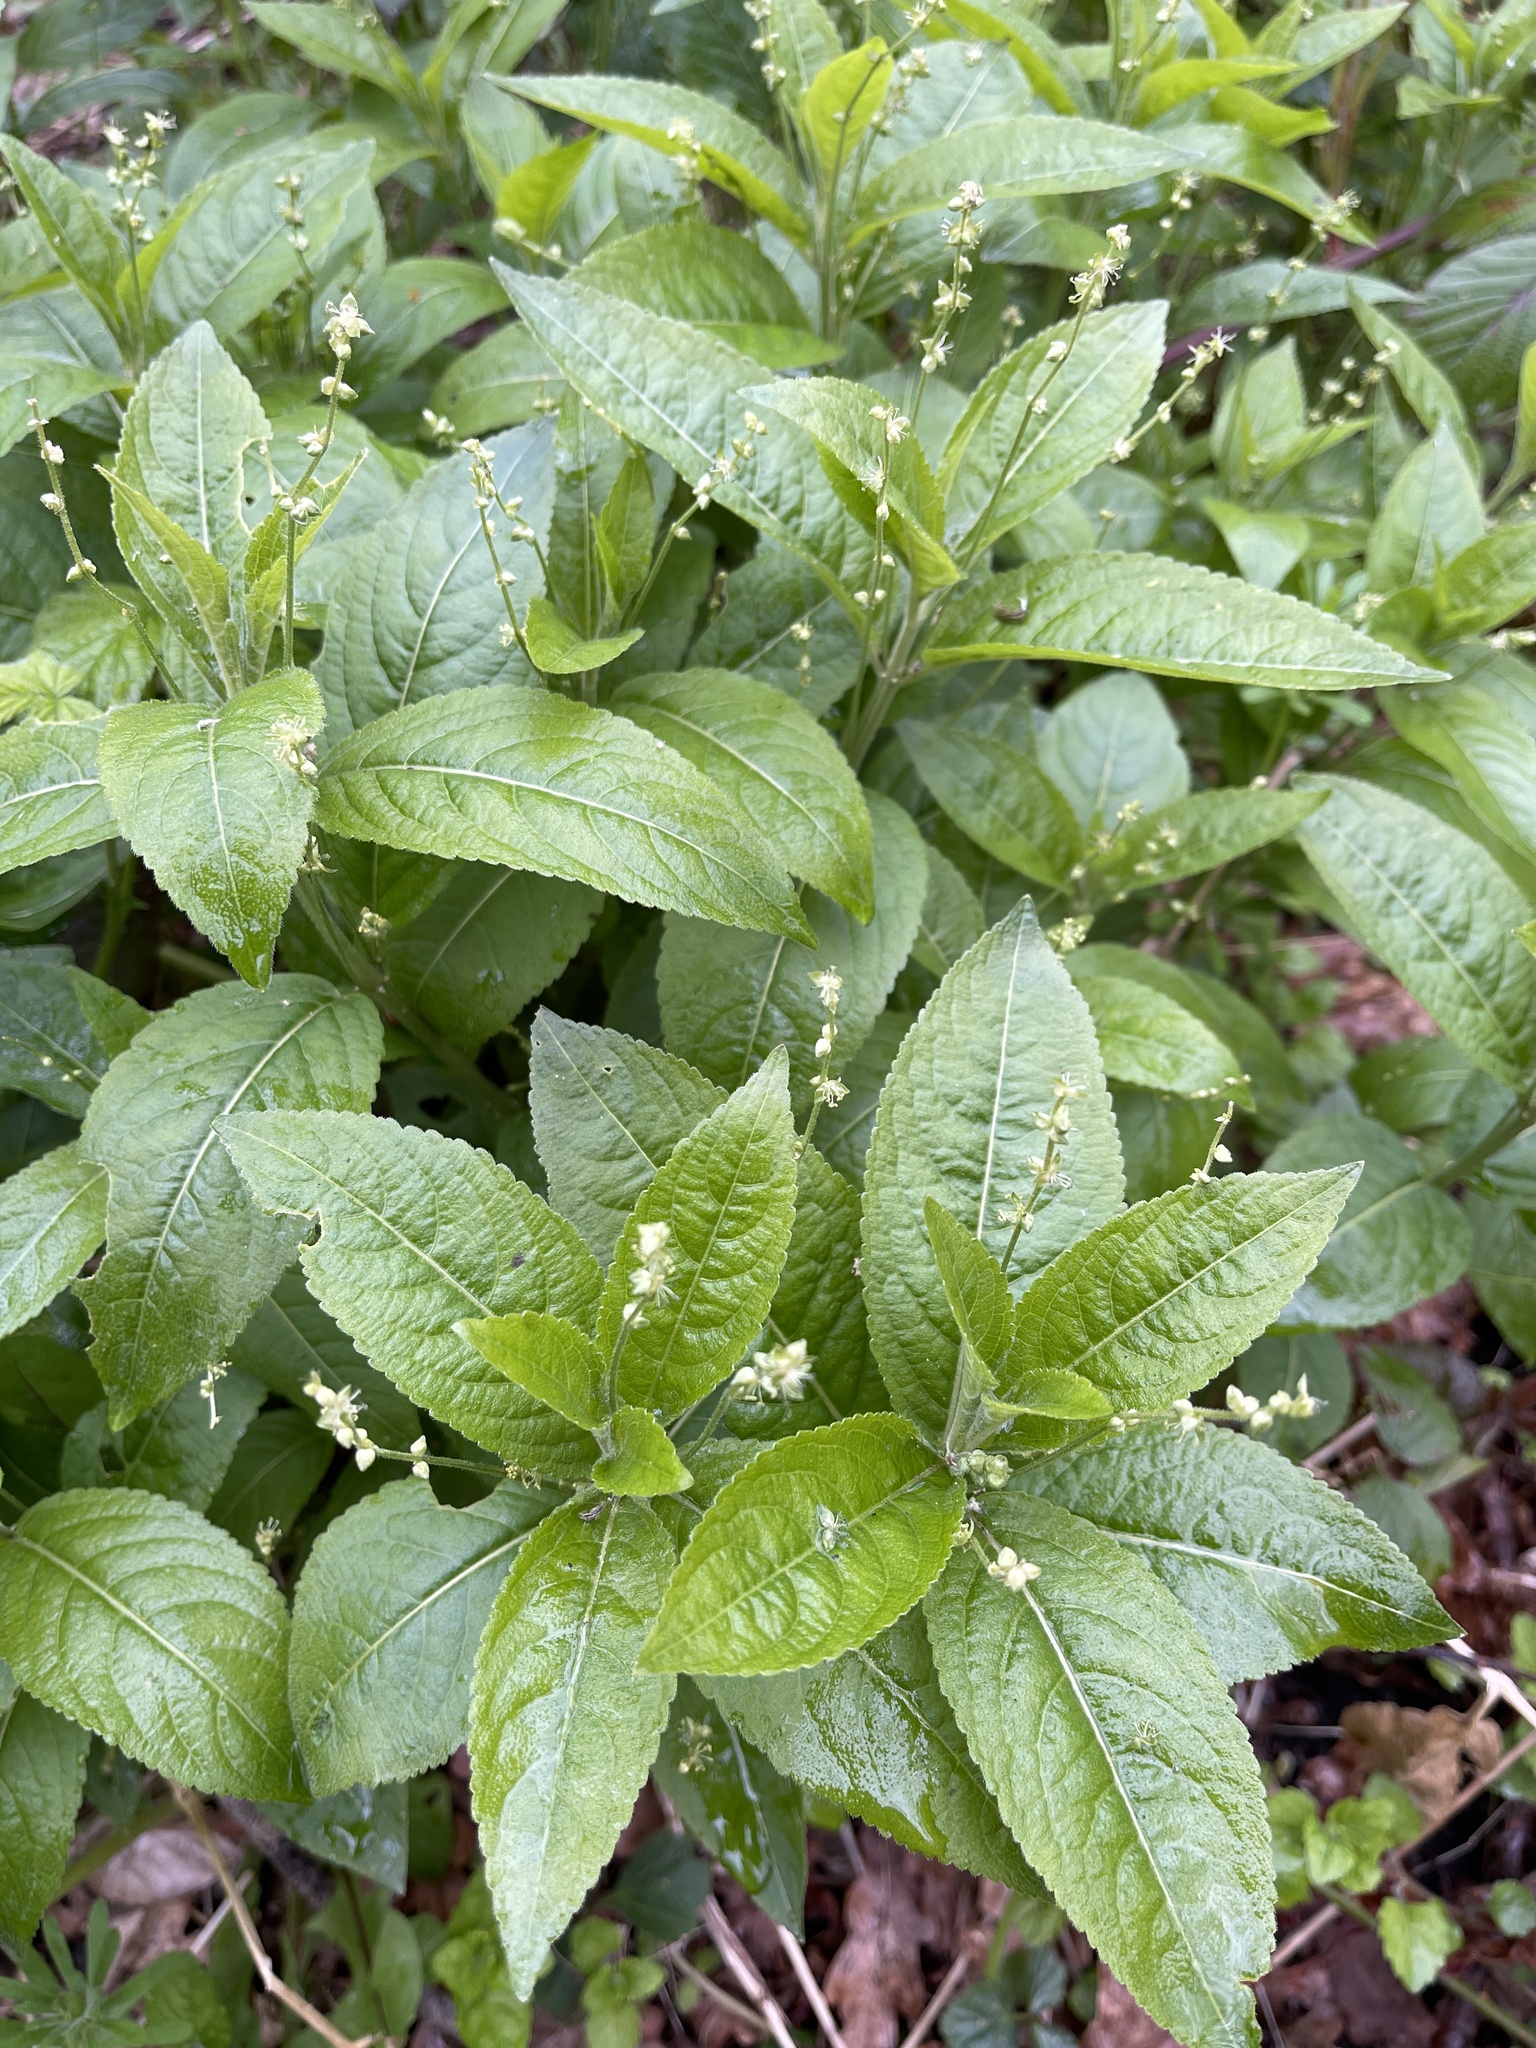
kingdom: Plantae
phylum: Tracheophyta
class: Magnoliopsida
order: Malpighiales
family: Euphorbiaceae
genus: Mercurialis
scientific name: Mercurialis perennis
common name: Dog mercury
